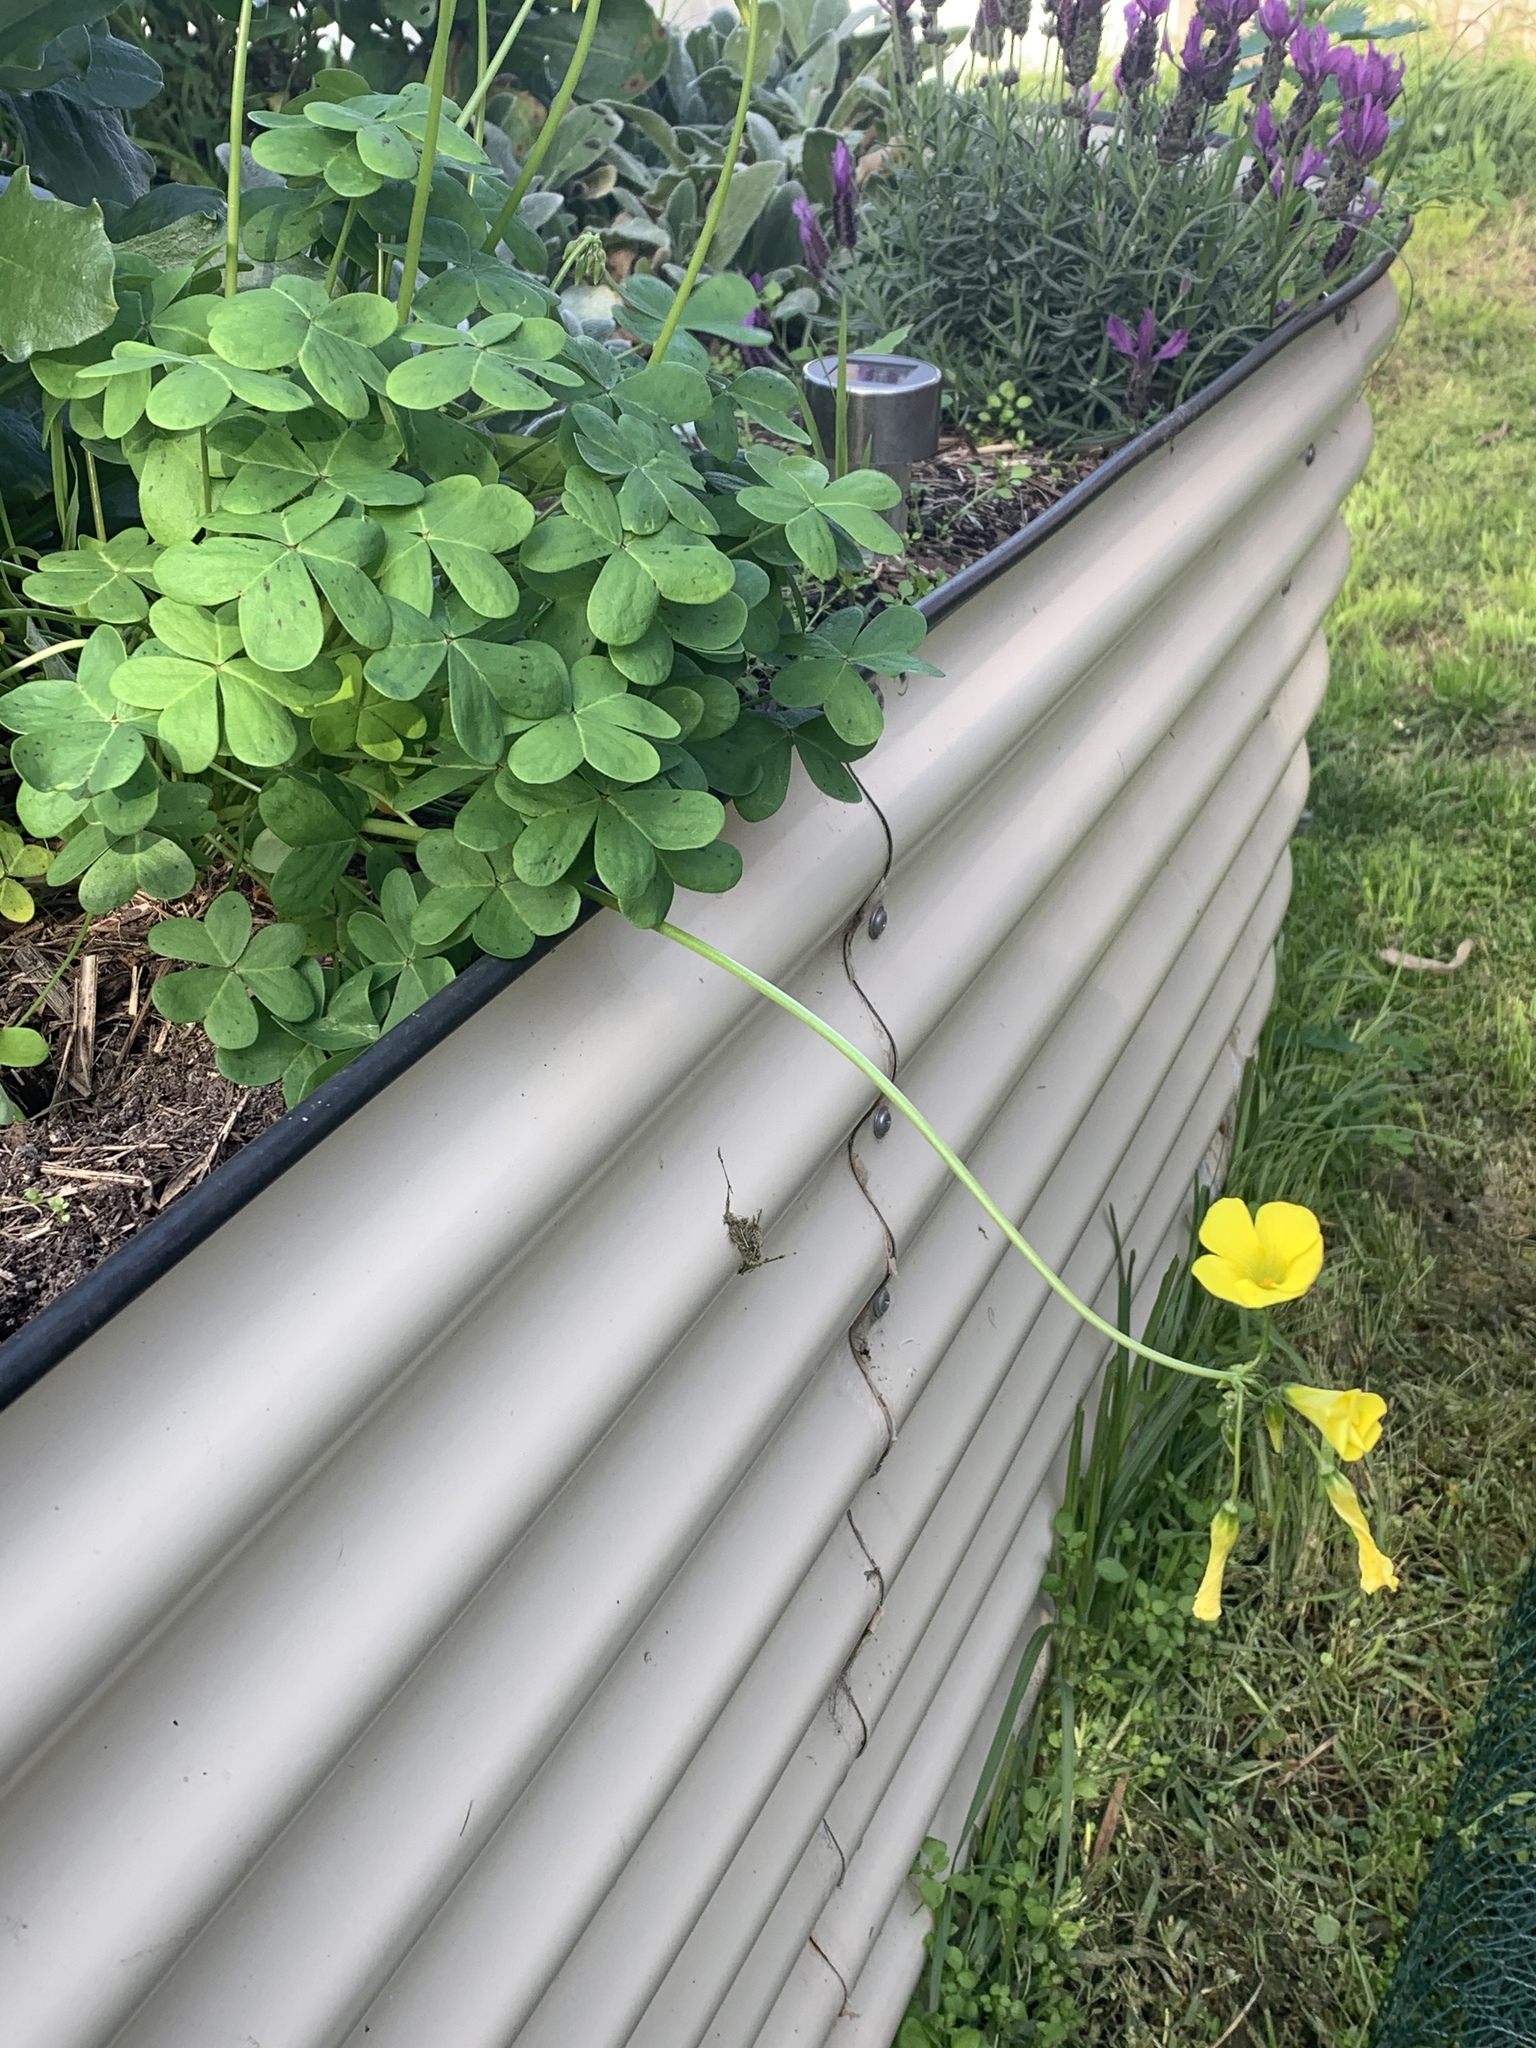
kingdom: Plantae
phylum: Tracheophyta
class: Magnoliopsida
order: Oxalidales
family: Oxalidaceae
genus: Oxalis
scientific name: Oxalis pes-caprae
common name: Bermuda-buttercup
